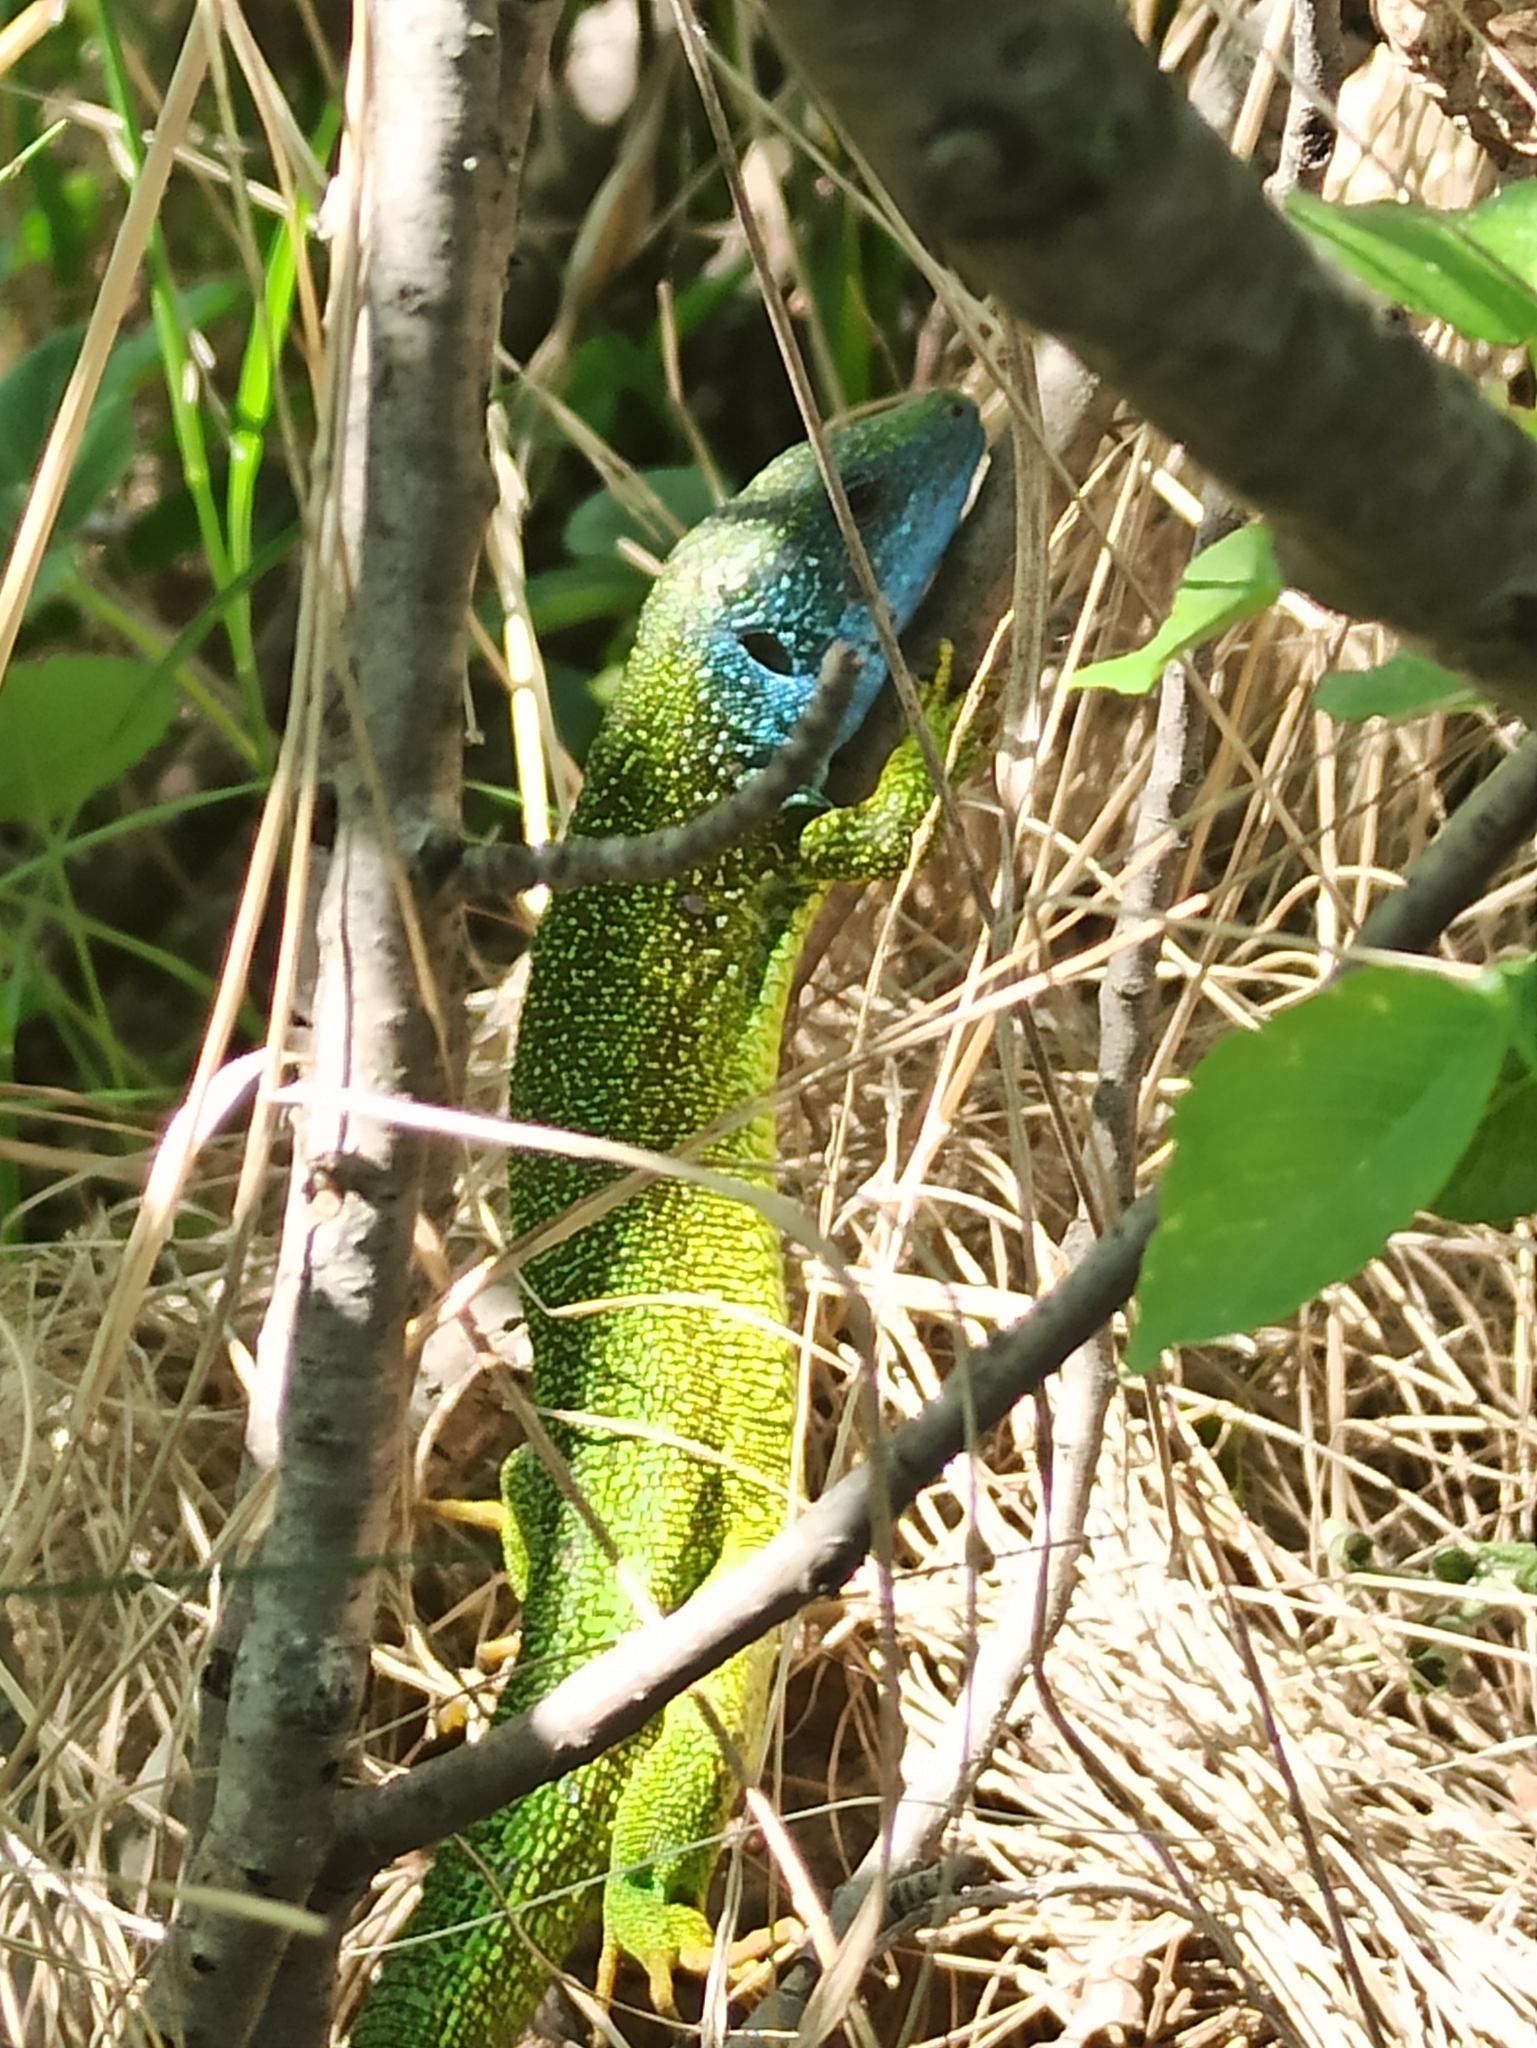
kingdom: Animalia
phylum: Chordata
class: Squamata
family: Lacertidae
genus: Lacerta
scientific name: Lacerta viridis
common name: European green lizard
